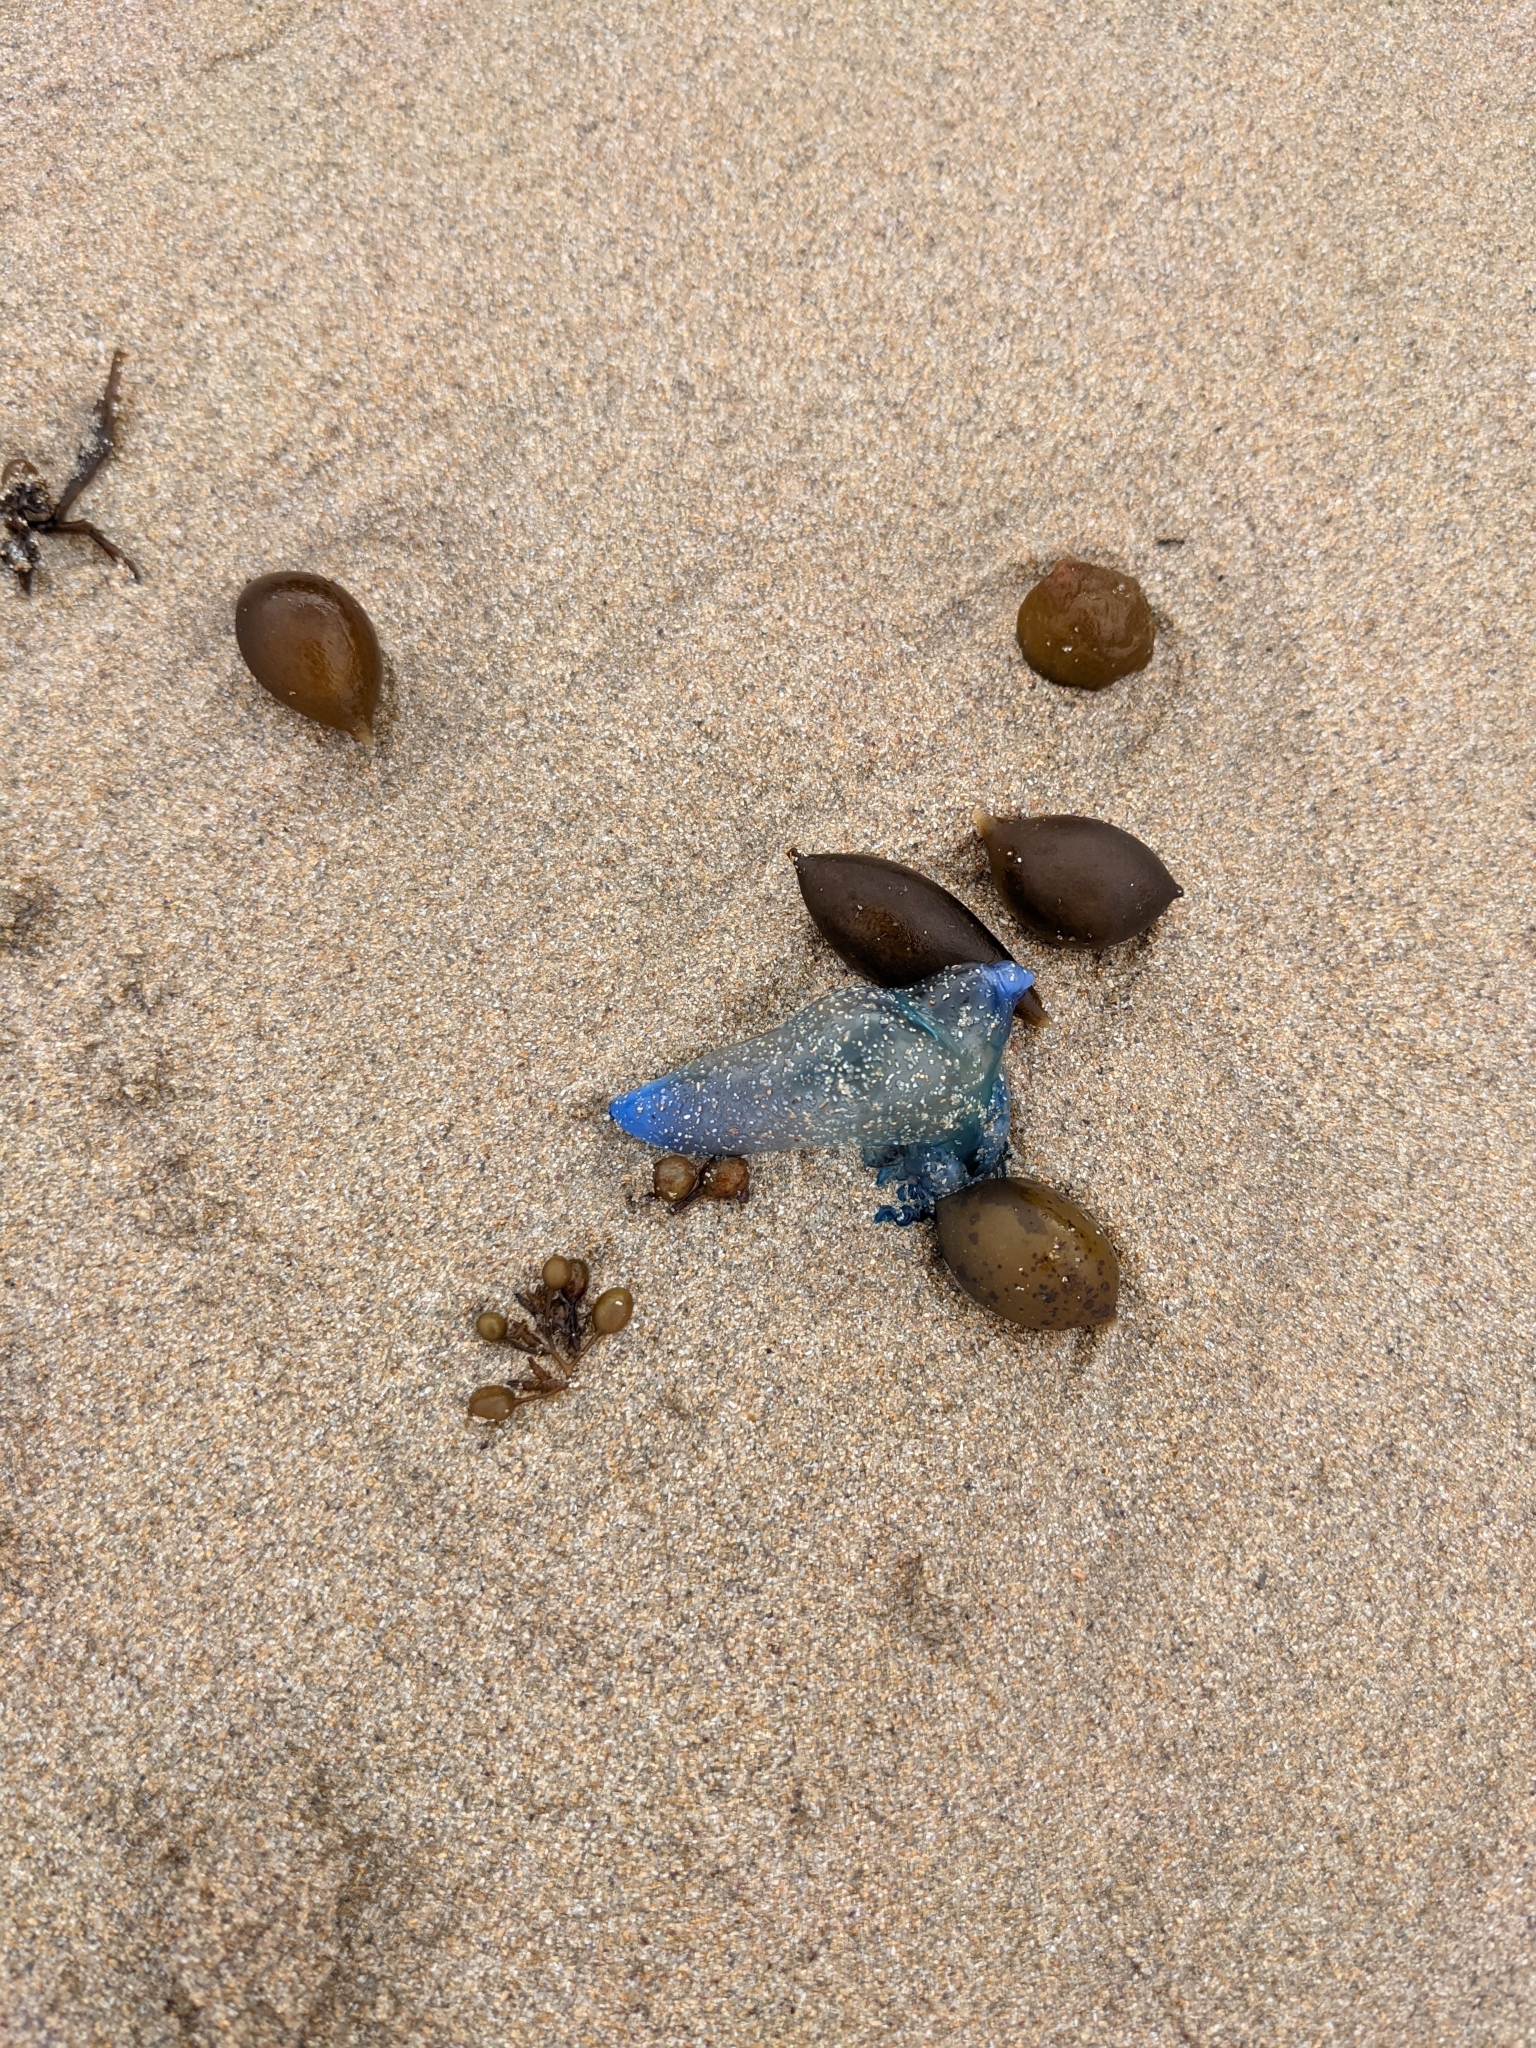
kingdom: Animalia
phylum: Cnidaria
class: Hydrozoa
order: Siphonophorae
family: Physaliidae
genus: Physalia
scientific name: Physalia physalis
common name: Portuguese man-of-war
